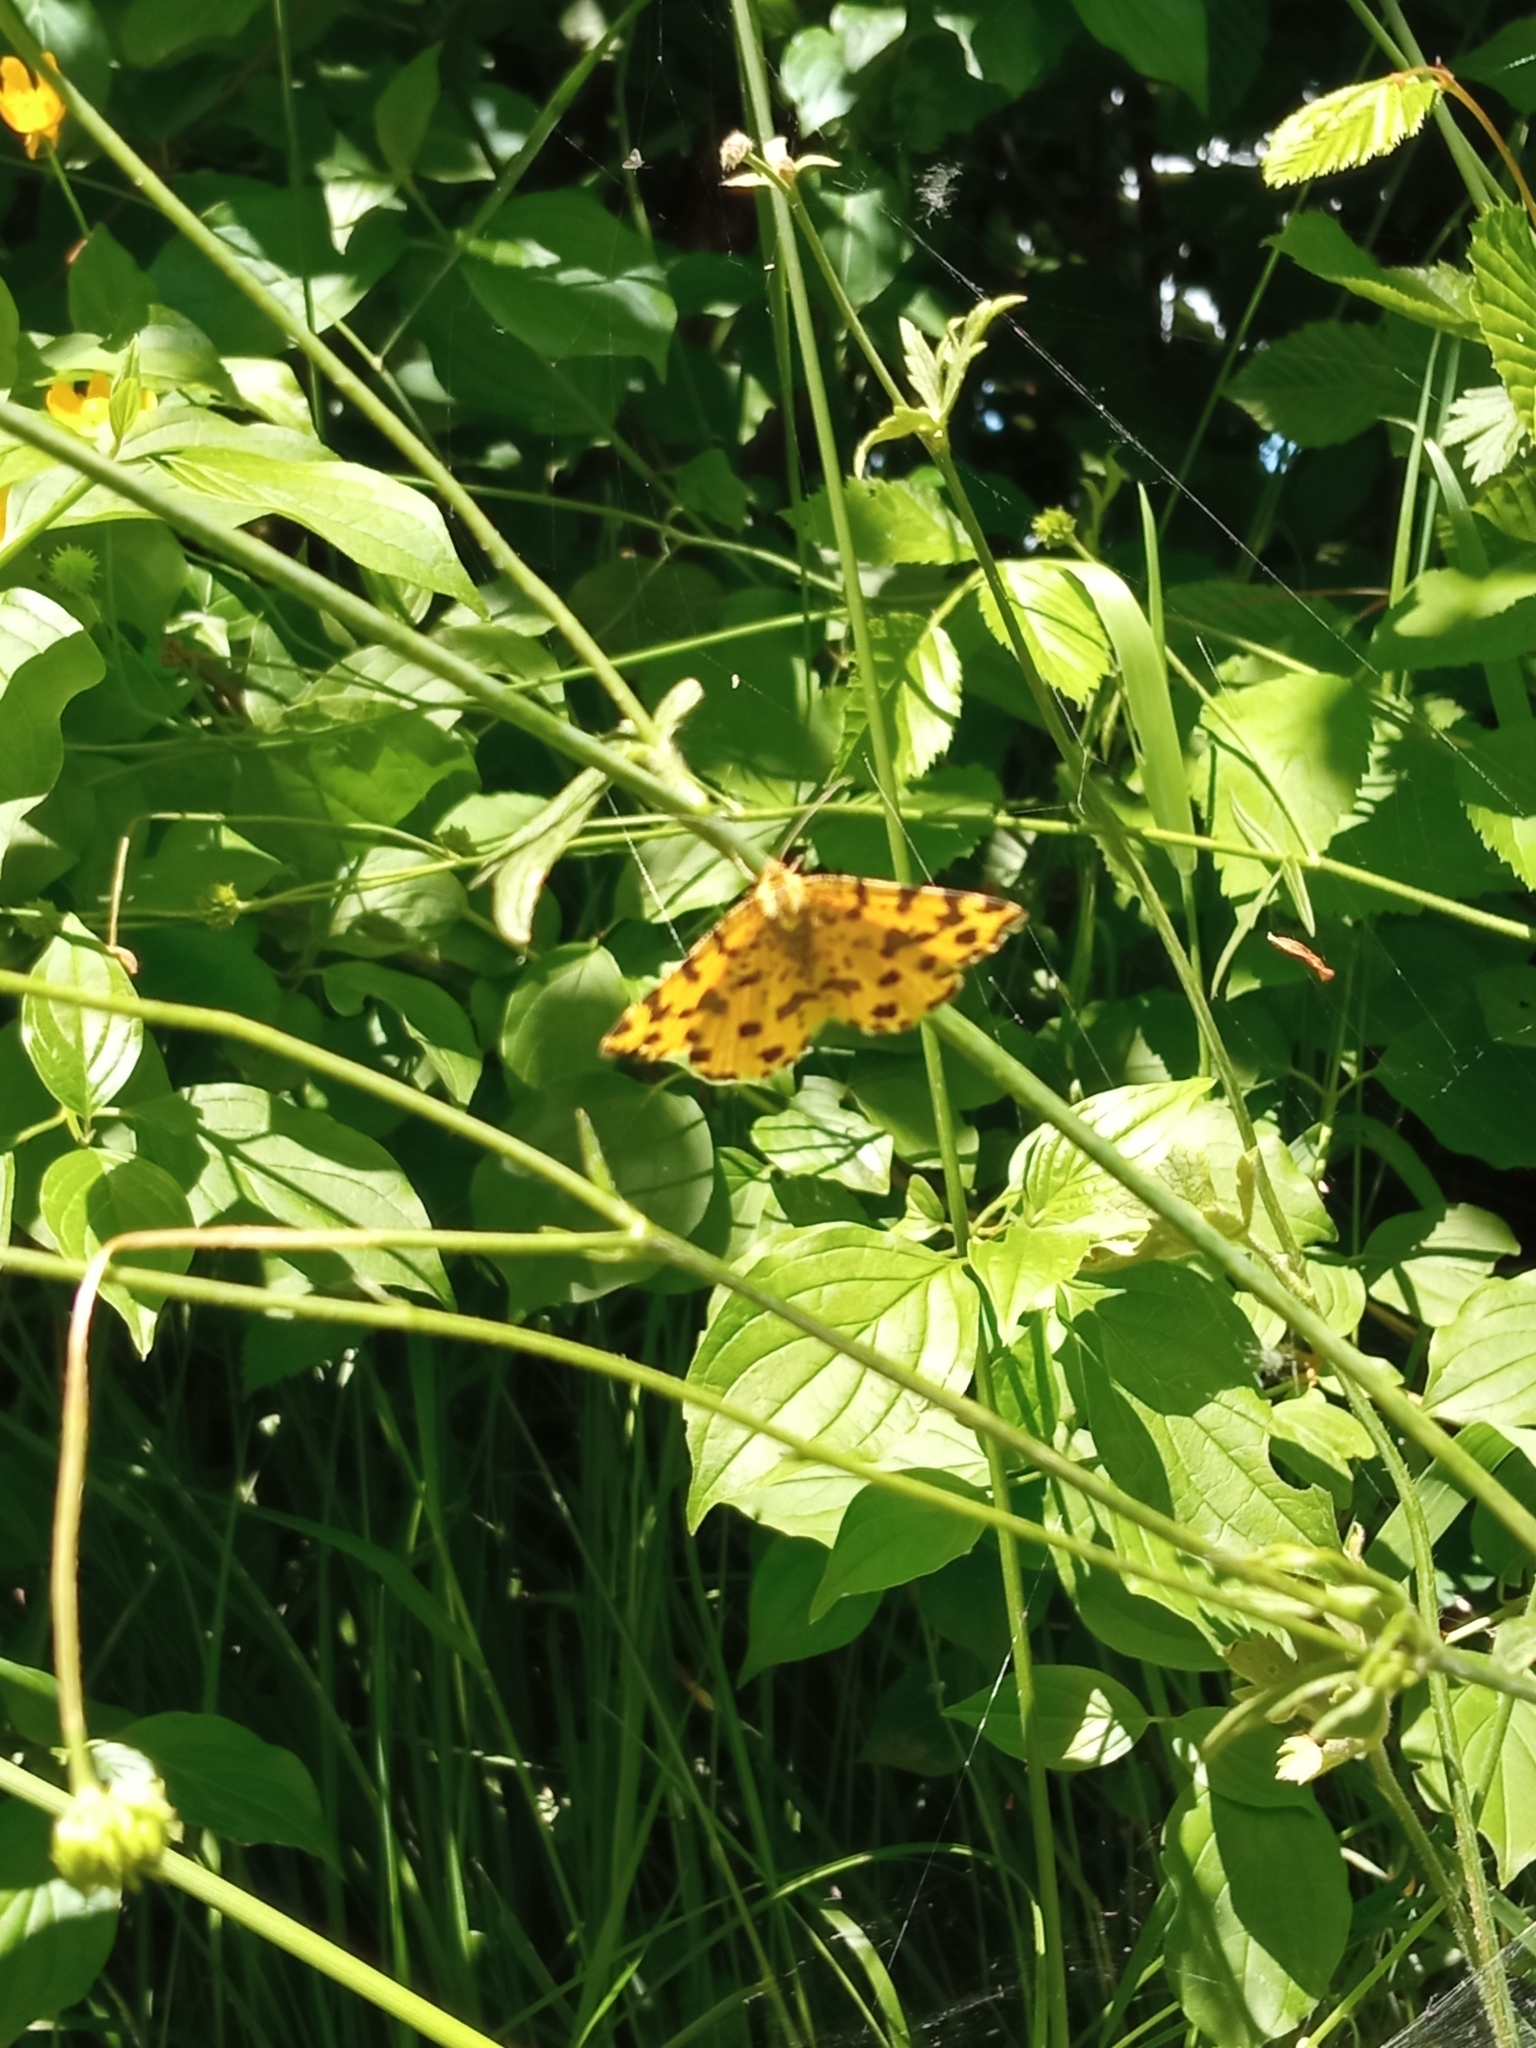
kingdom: Animalia
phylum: Arthropoda
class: Insecta
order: Lepidoptera
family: Geometridae
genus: Pseudopanthera
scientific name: Pseudopanthera macularia
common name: Speckled yellow
